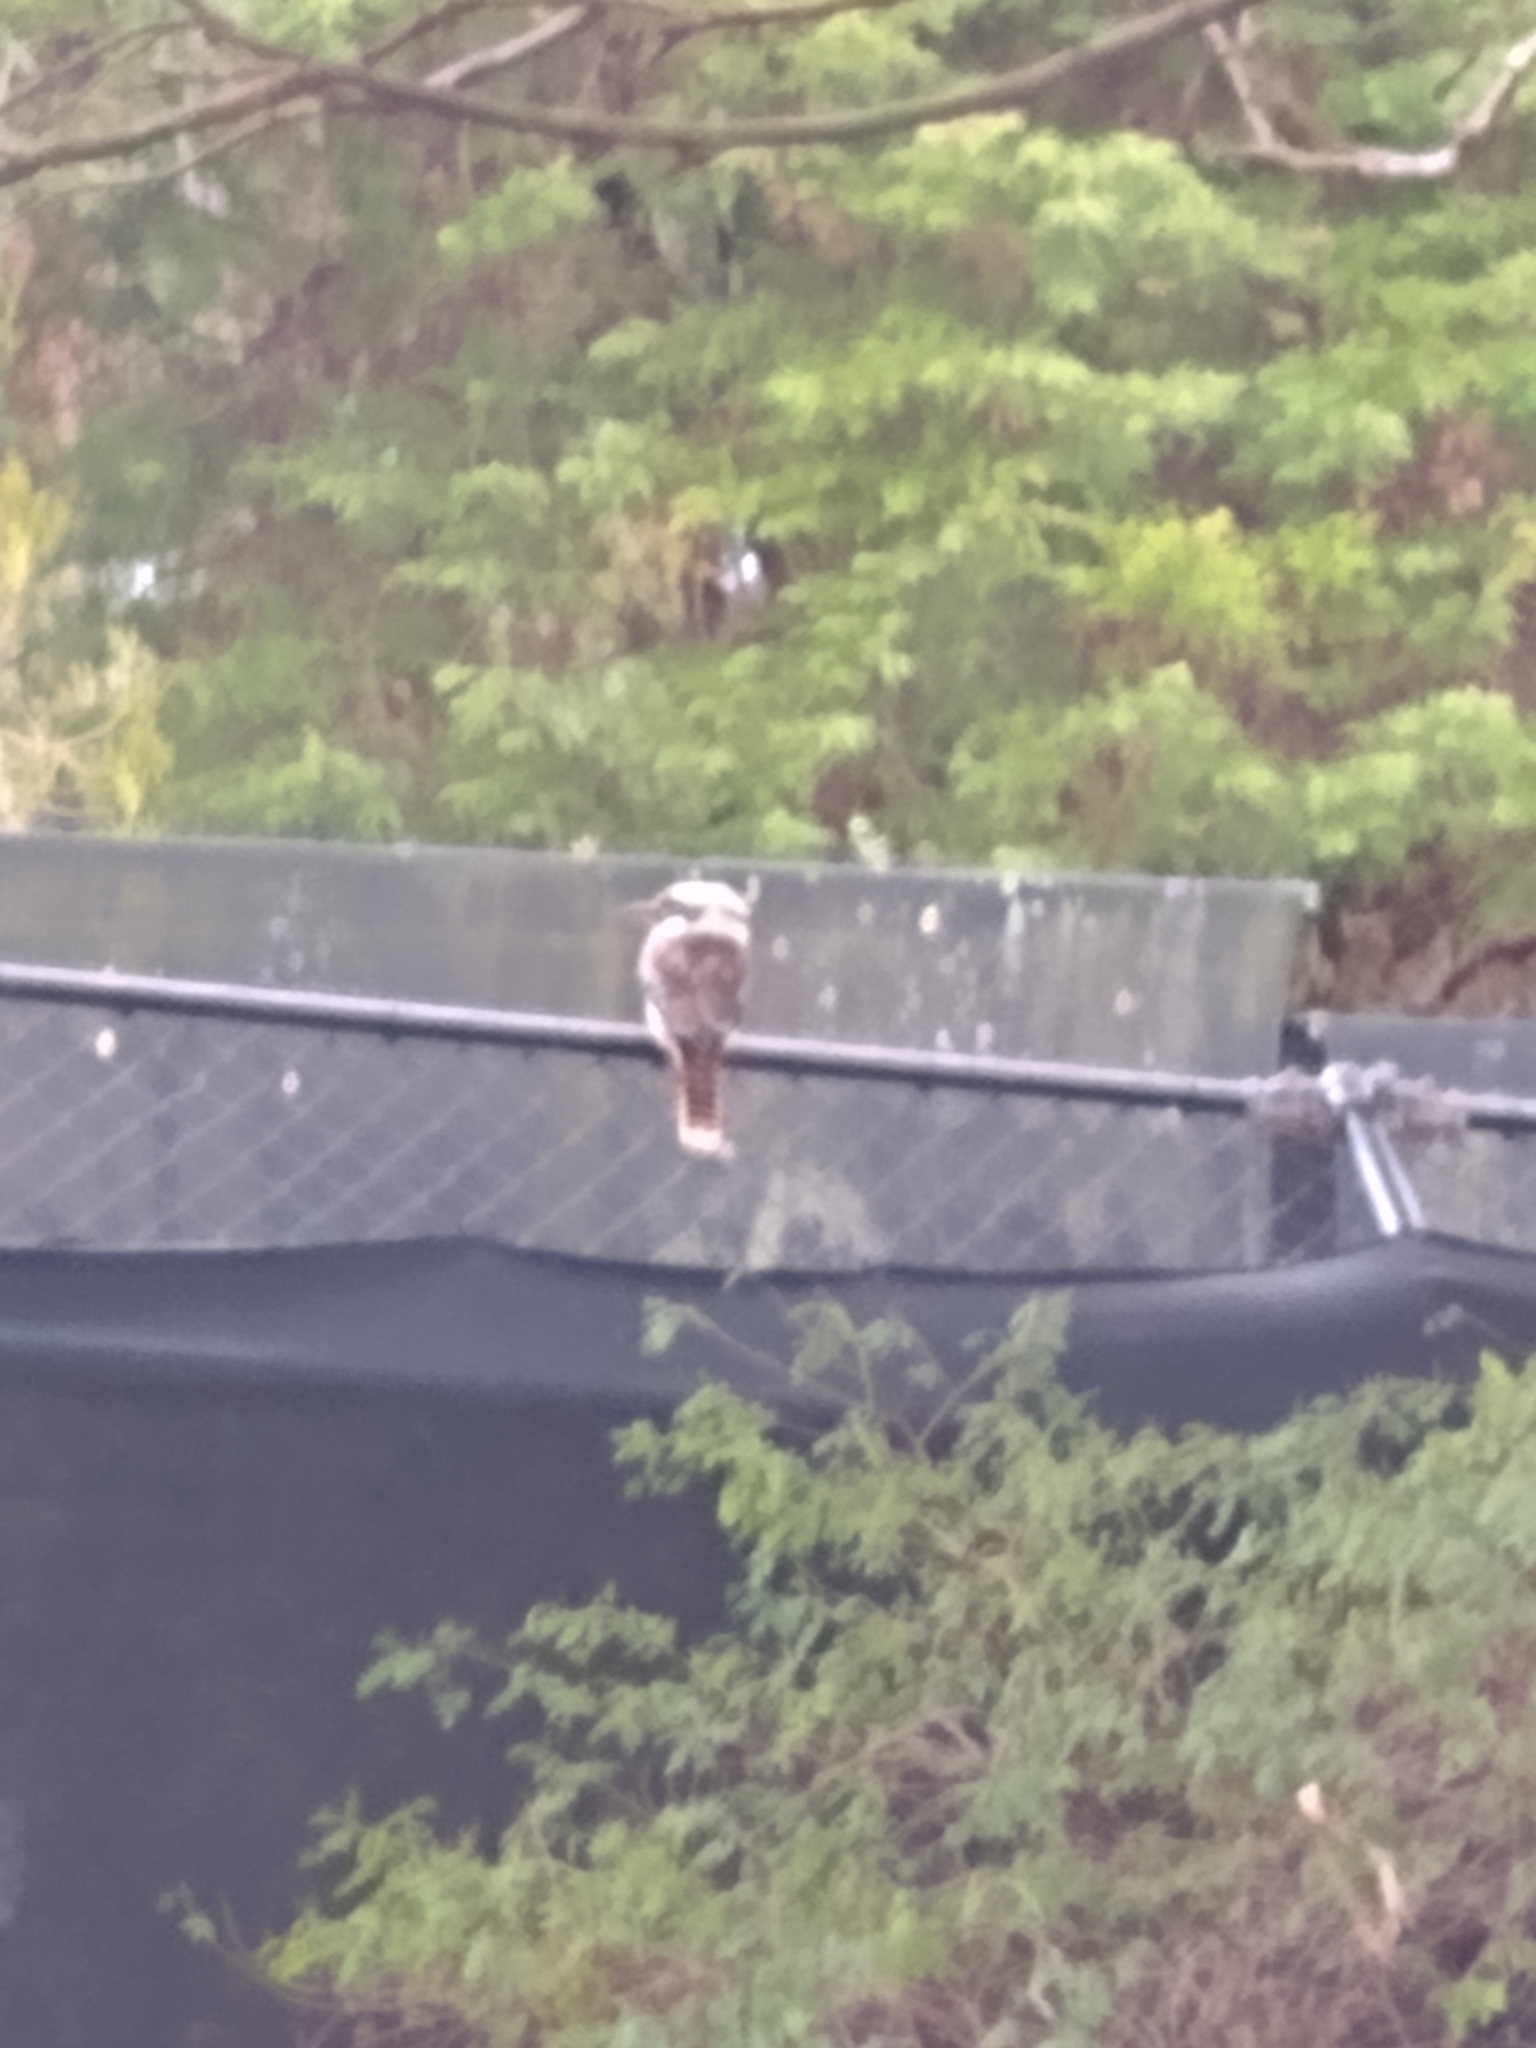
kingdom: Animalia
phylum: Chordata
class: Aves
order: Coraciiformes
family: Alcedinidae
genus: Dacelo
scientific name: Dacelo novaeguineae
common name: Laughing kookaburra
